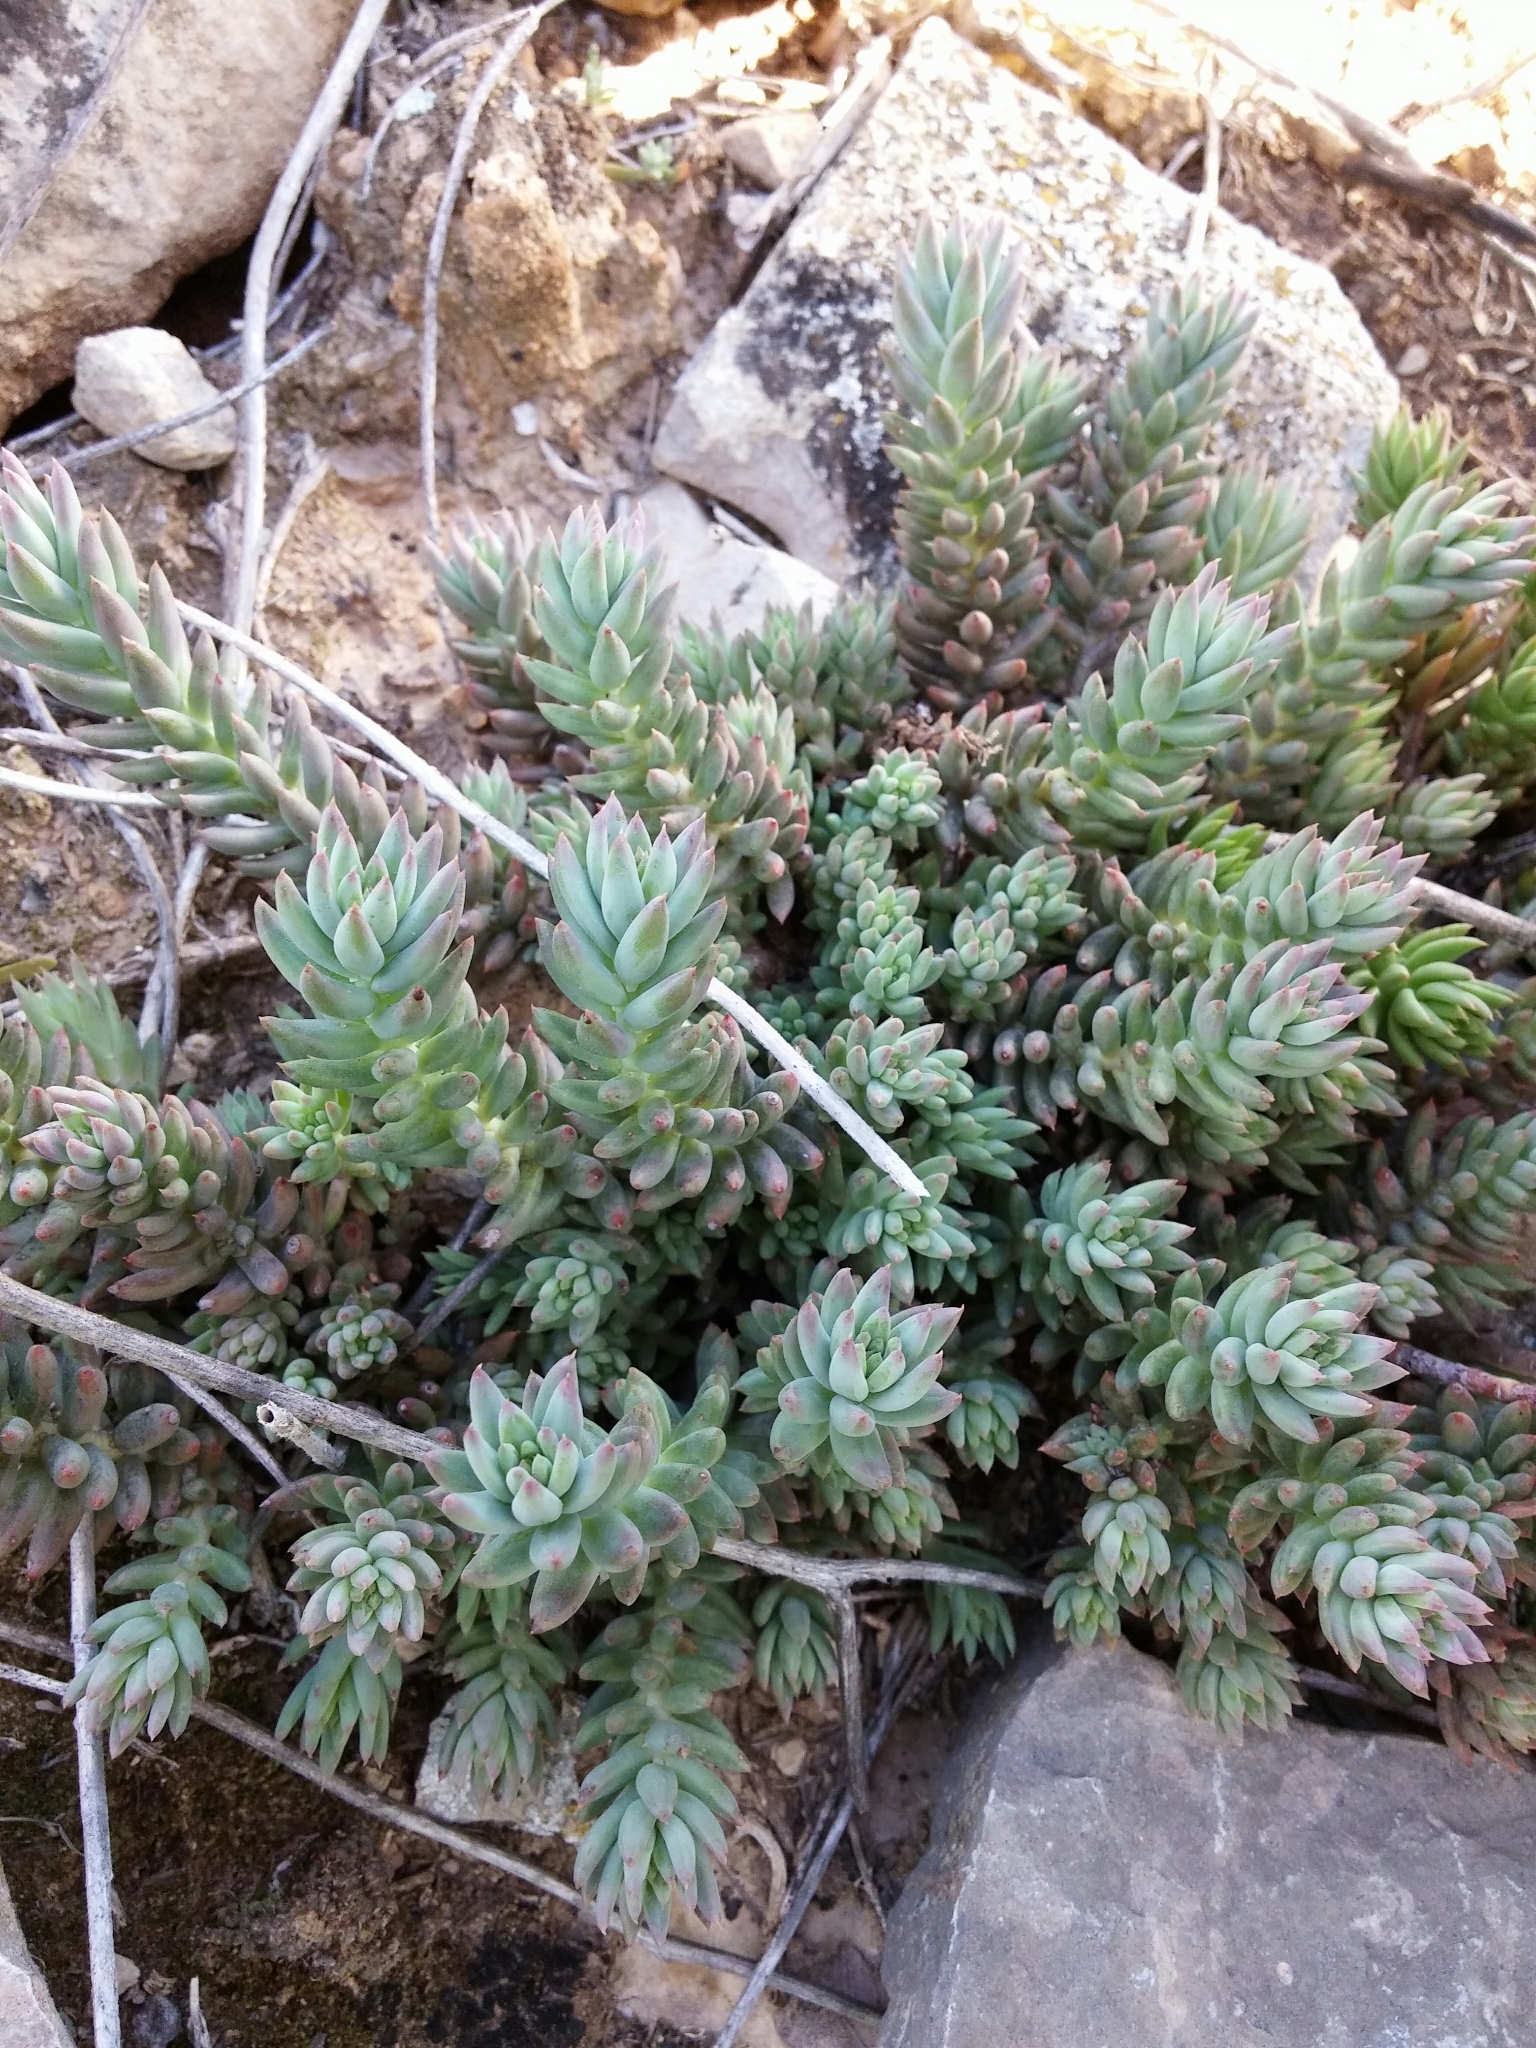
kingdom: Plantae
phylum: Tracheophyta
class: Magnoliopsida
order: Saxifragales
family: Crassulaceae
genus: Petrosedum
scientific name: Petrosedum sediforme
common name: Pale stonecrop
